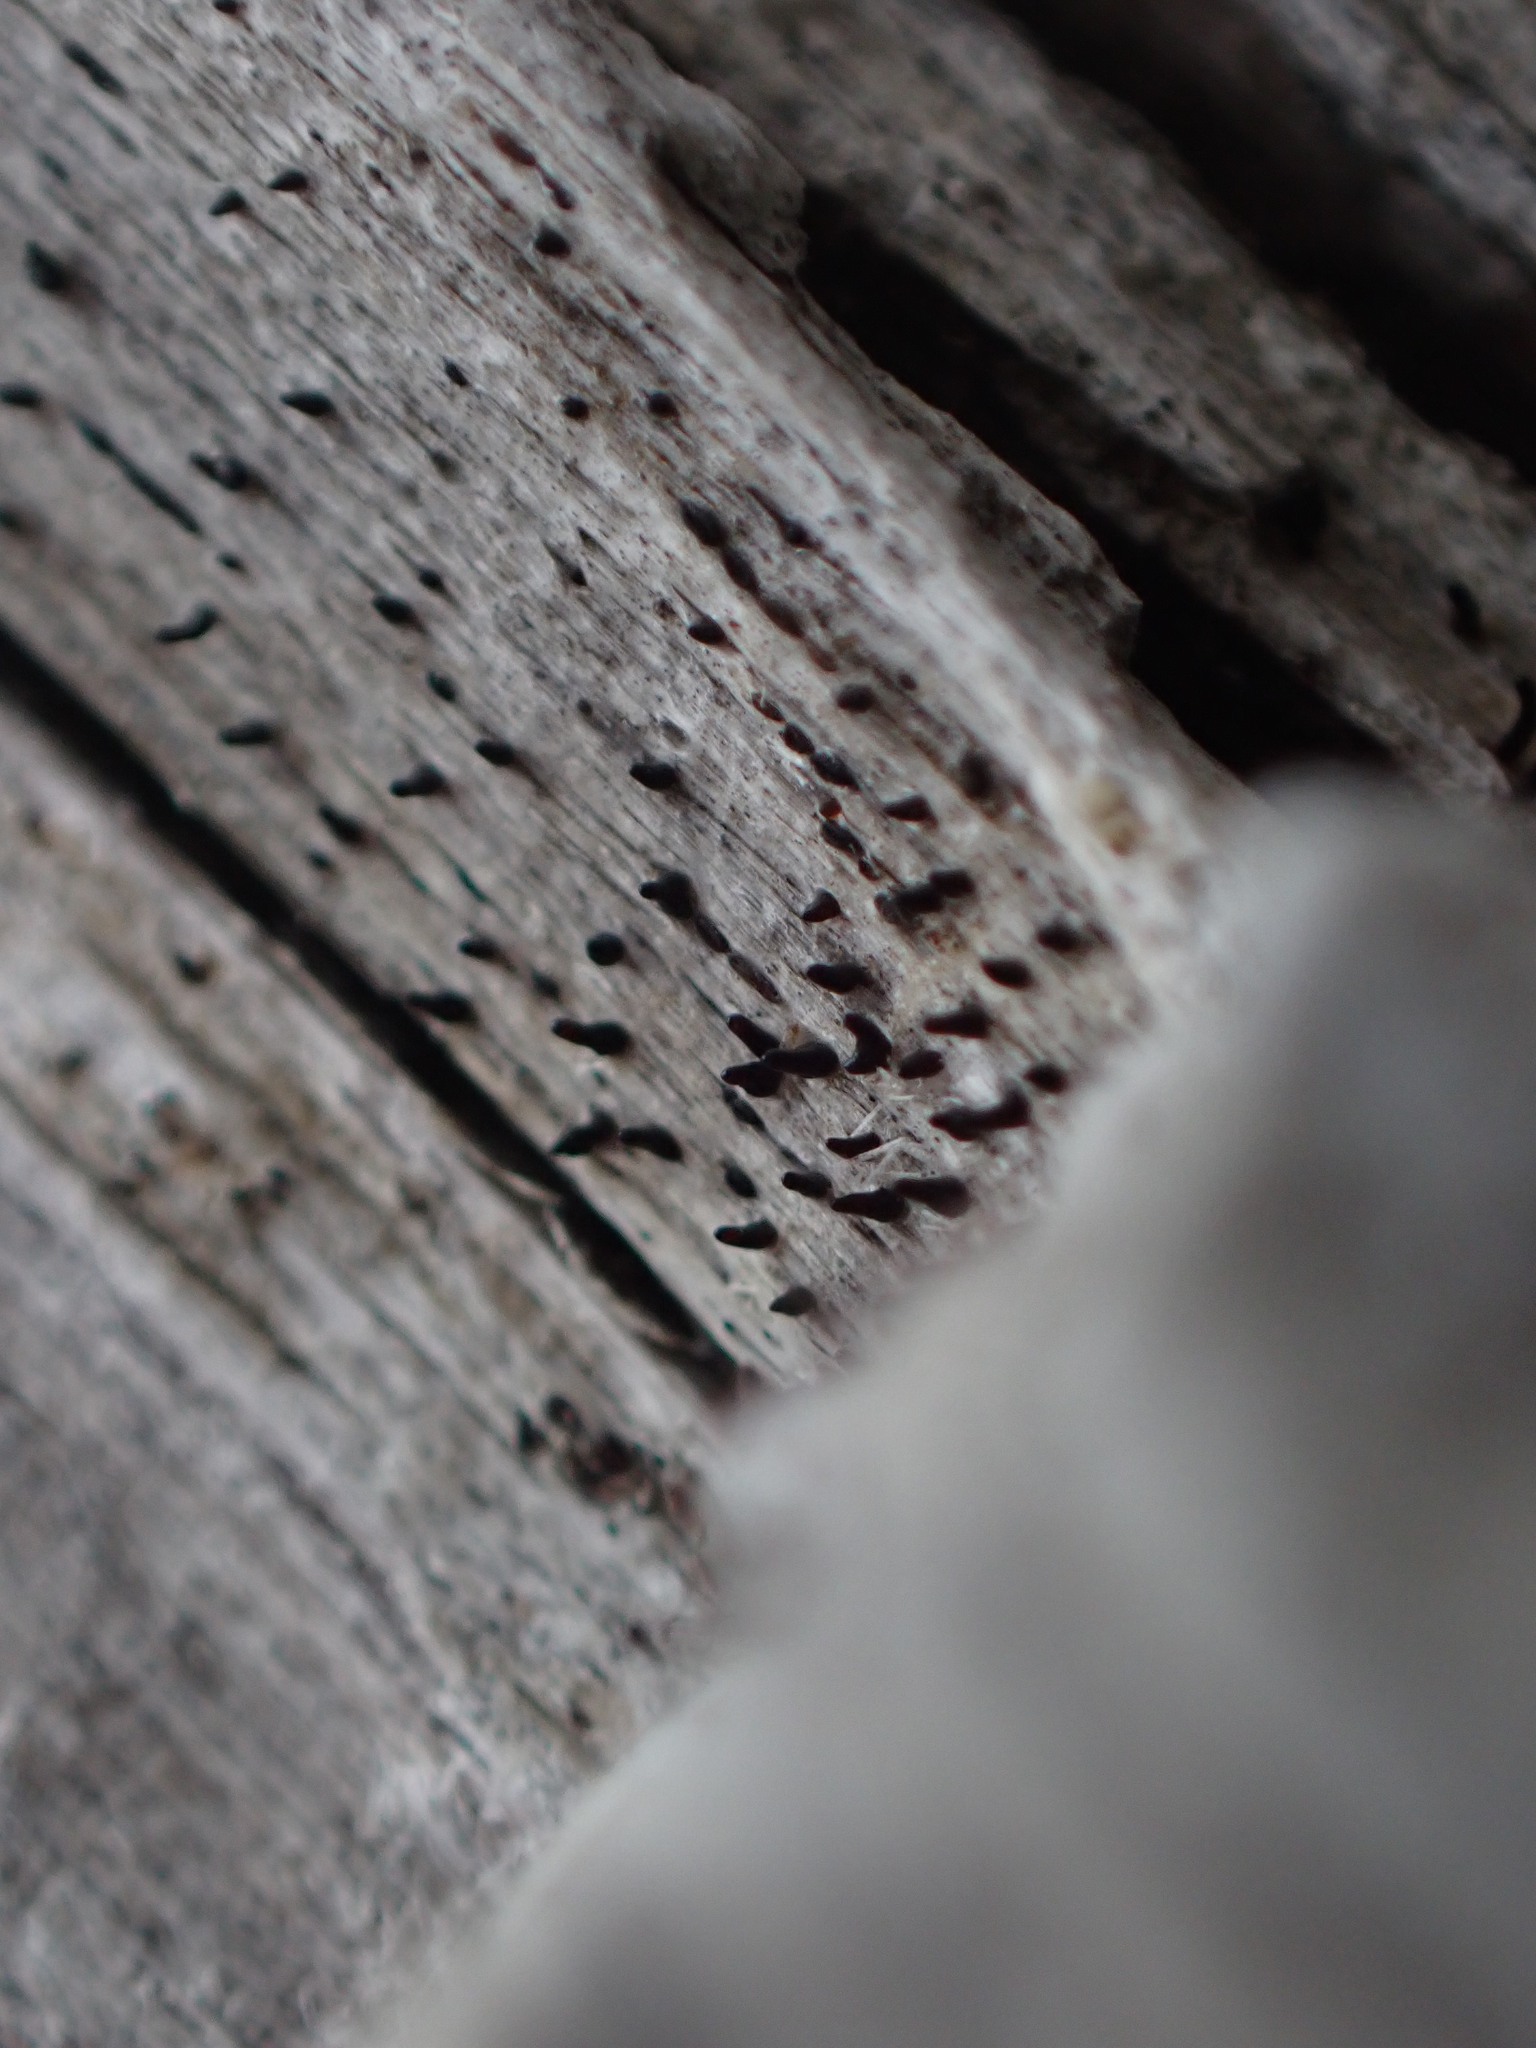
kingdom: Fungi
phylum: Basidiomycota
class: Dacrymycetes
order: Dacrymycetales
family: Dacryonaemataceae
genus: Dacryonaema
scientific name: Dacryonaema rufum
